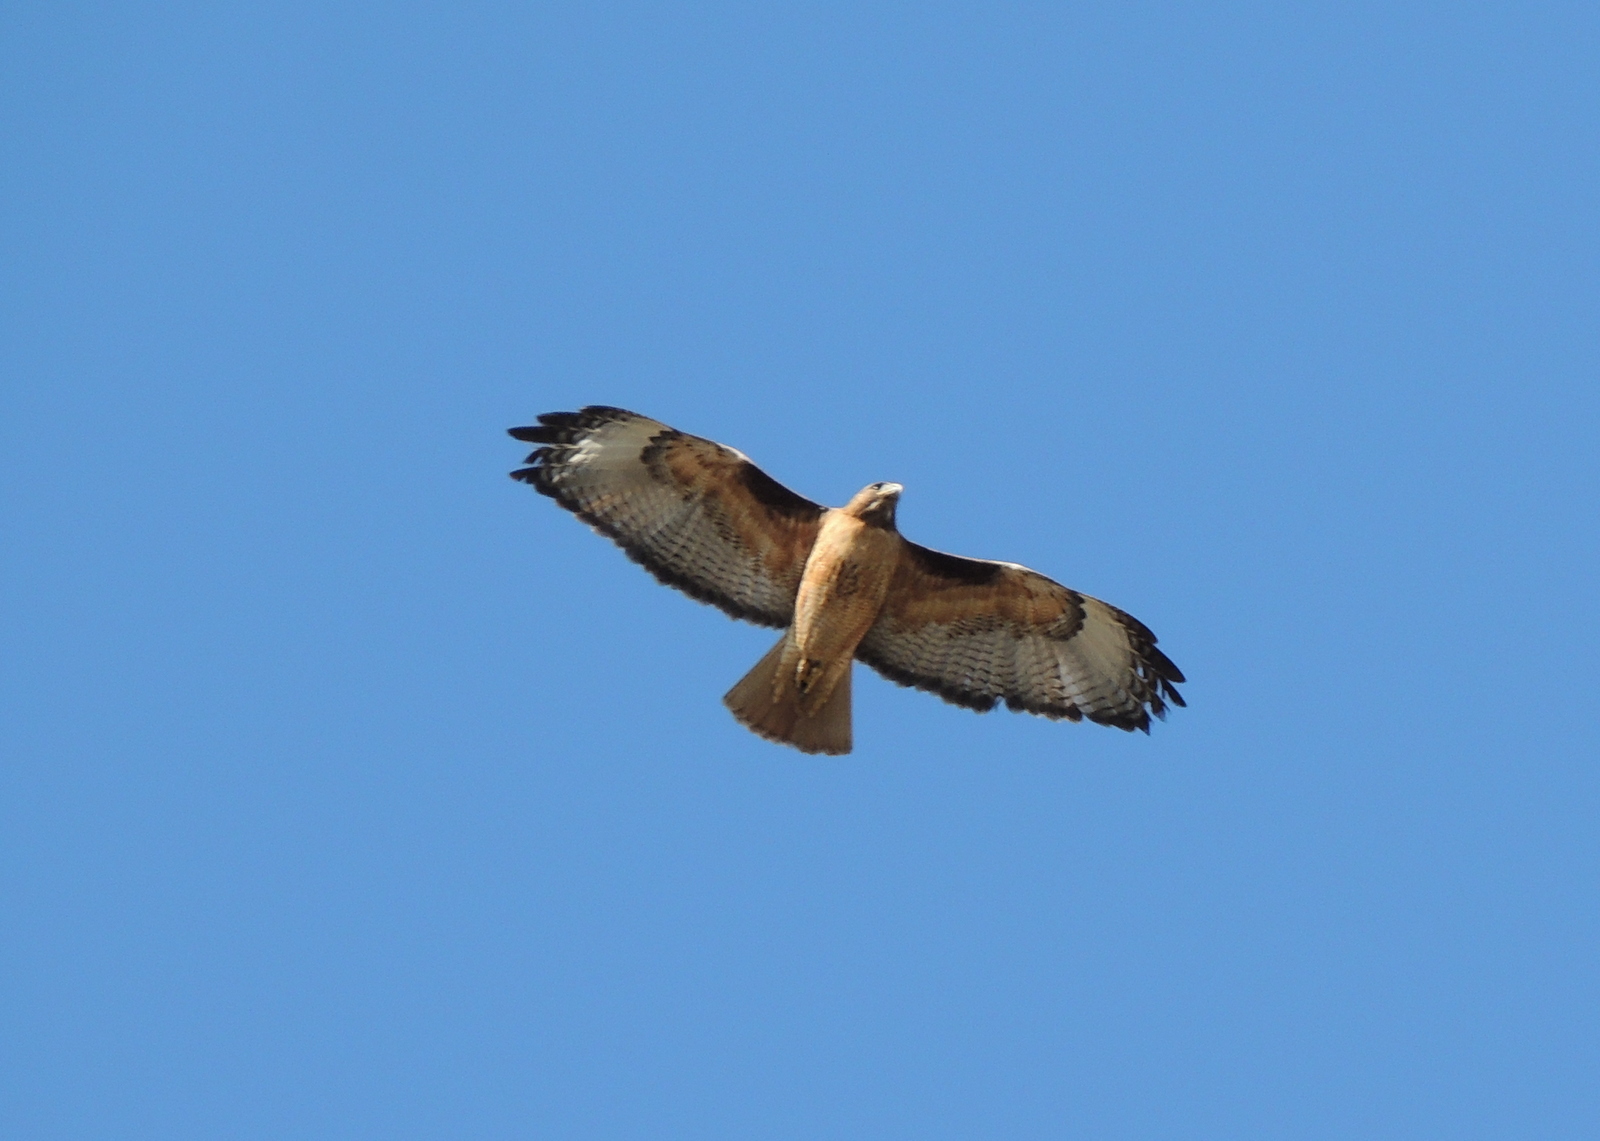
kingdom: Animalia
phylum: Chordata
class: Aves
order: Accipitriformes
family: Accipitridae
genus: Buteo
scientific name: Buteo jamaicensis
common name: Red-tailed hawk
